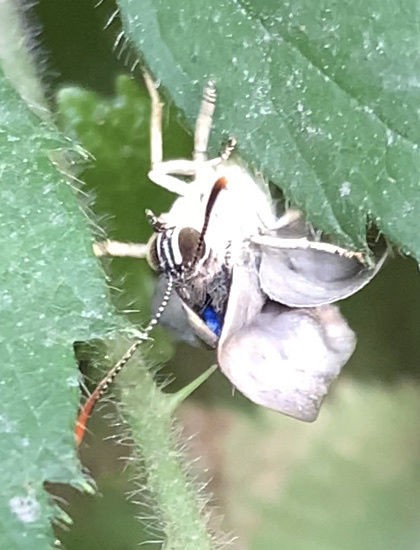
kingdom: Animalia
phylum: Arthropoda
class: Insecta
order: Lepidoptera
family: Lycaenidae
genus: Quercusia
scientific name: Quercusia quercus
